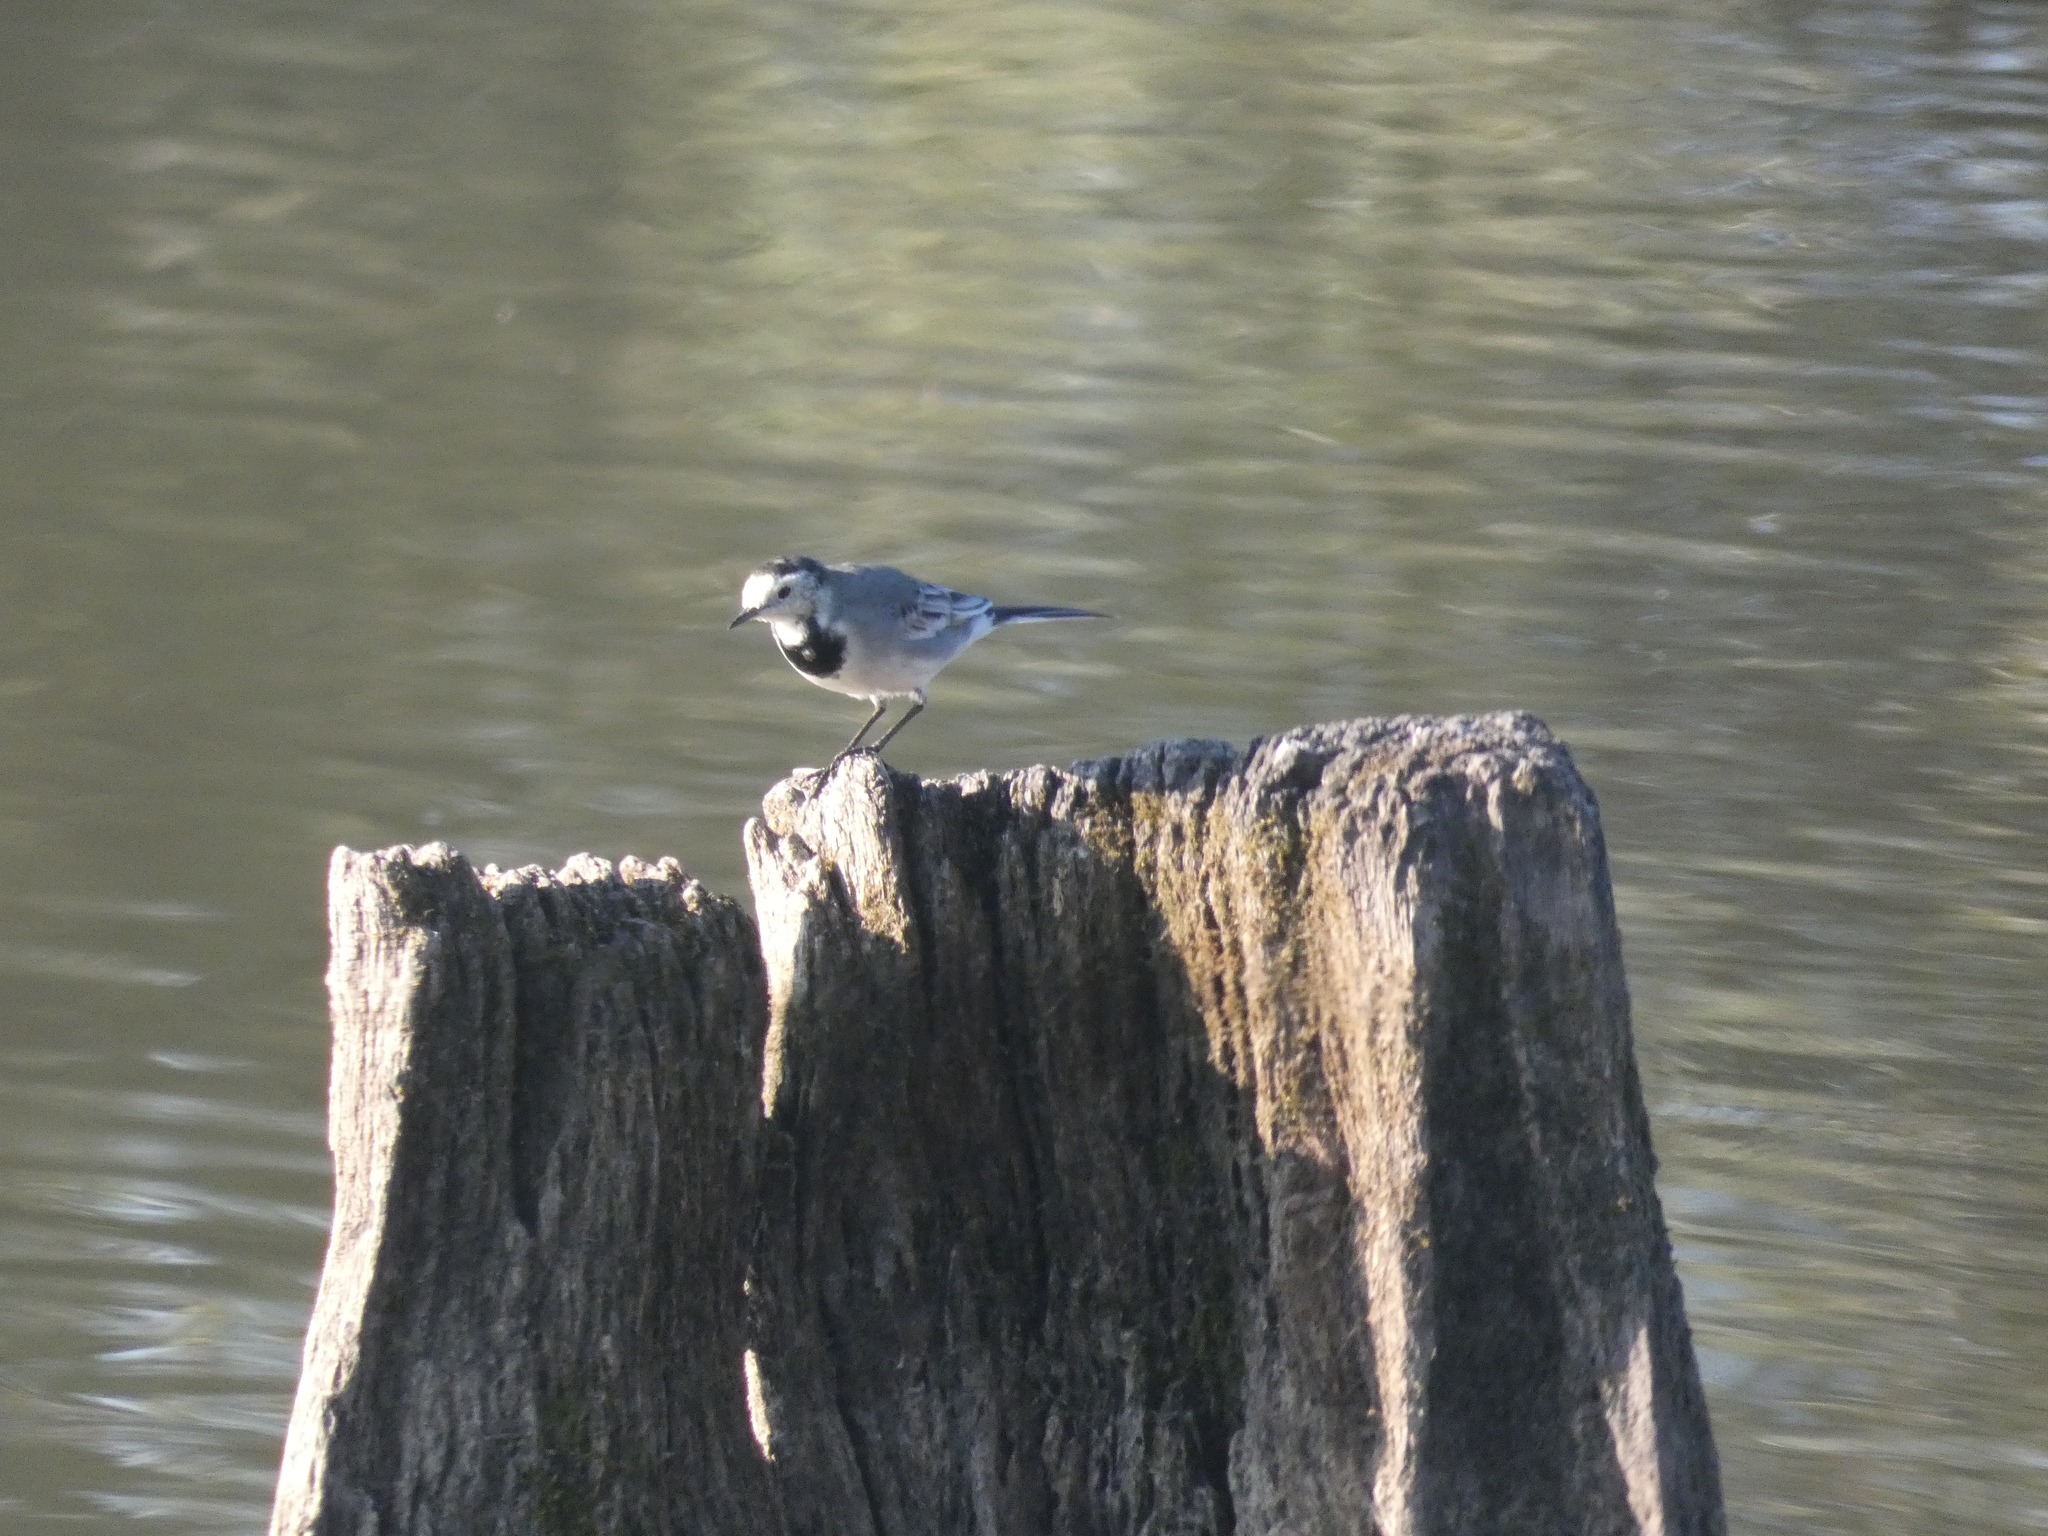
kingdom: Animalia
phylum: Chordata
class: Aves
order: Passeriformes
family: Motacillidae
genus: Motacilla
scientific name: Motacilla alba
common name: White wagtail
